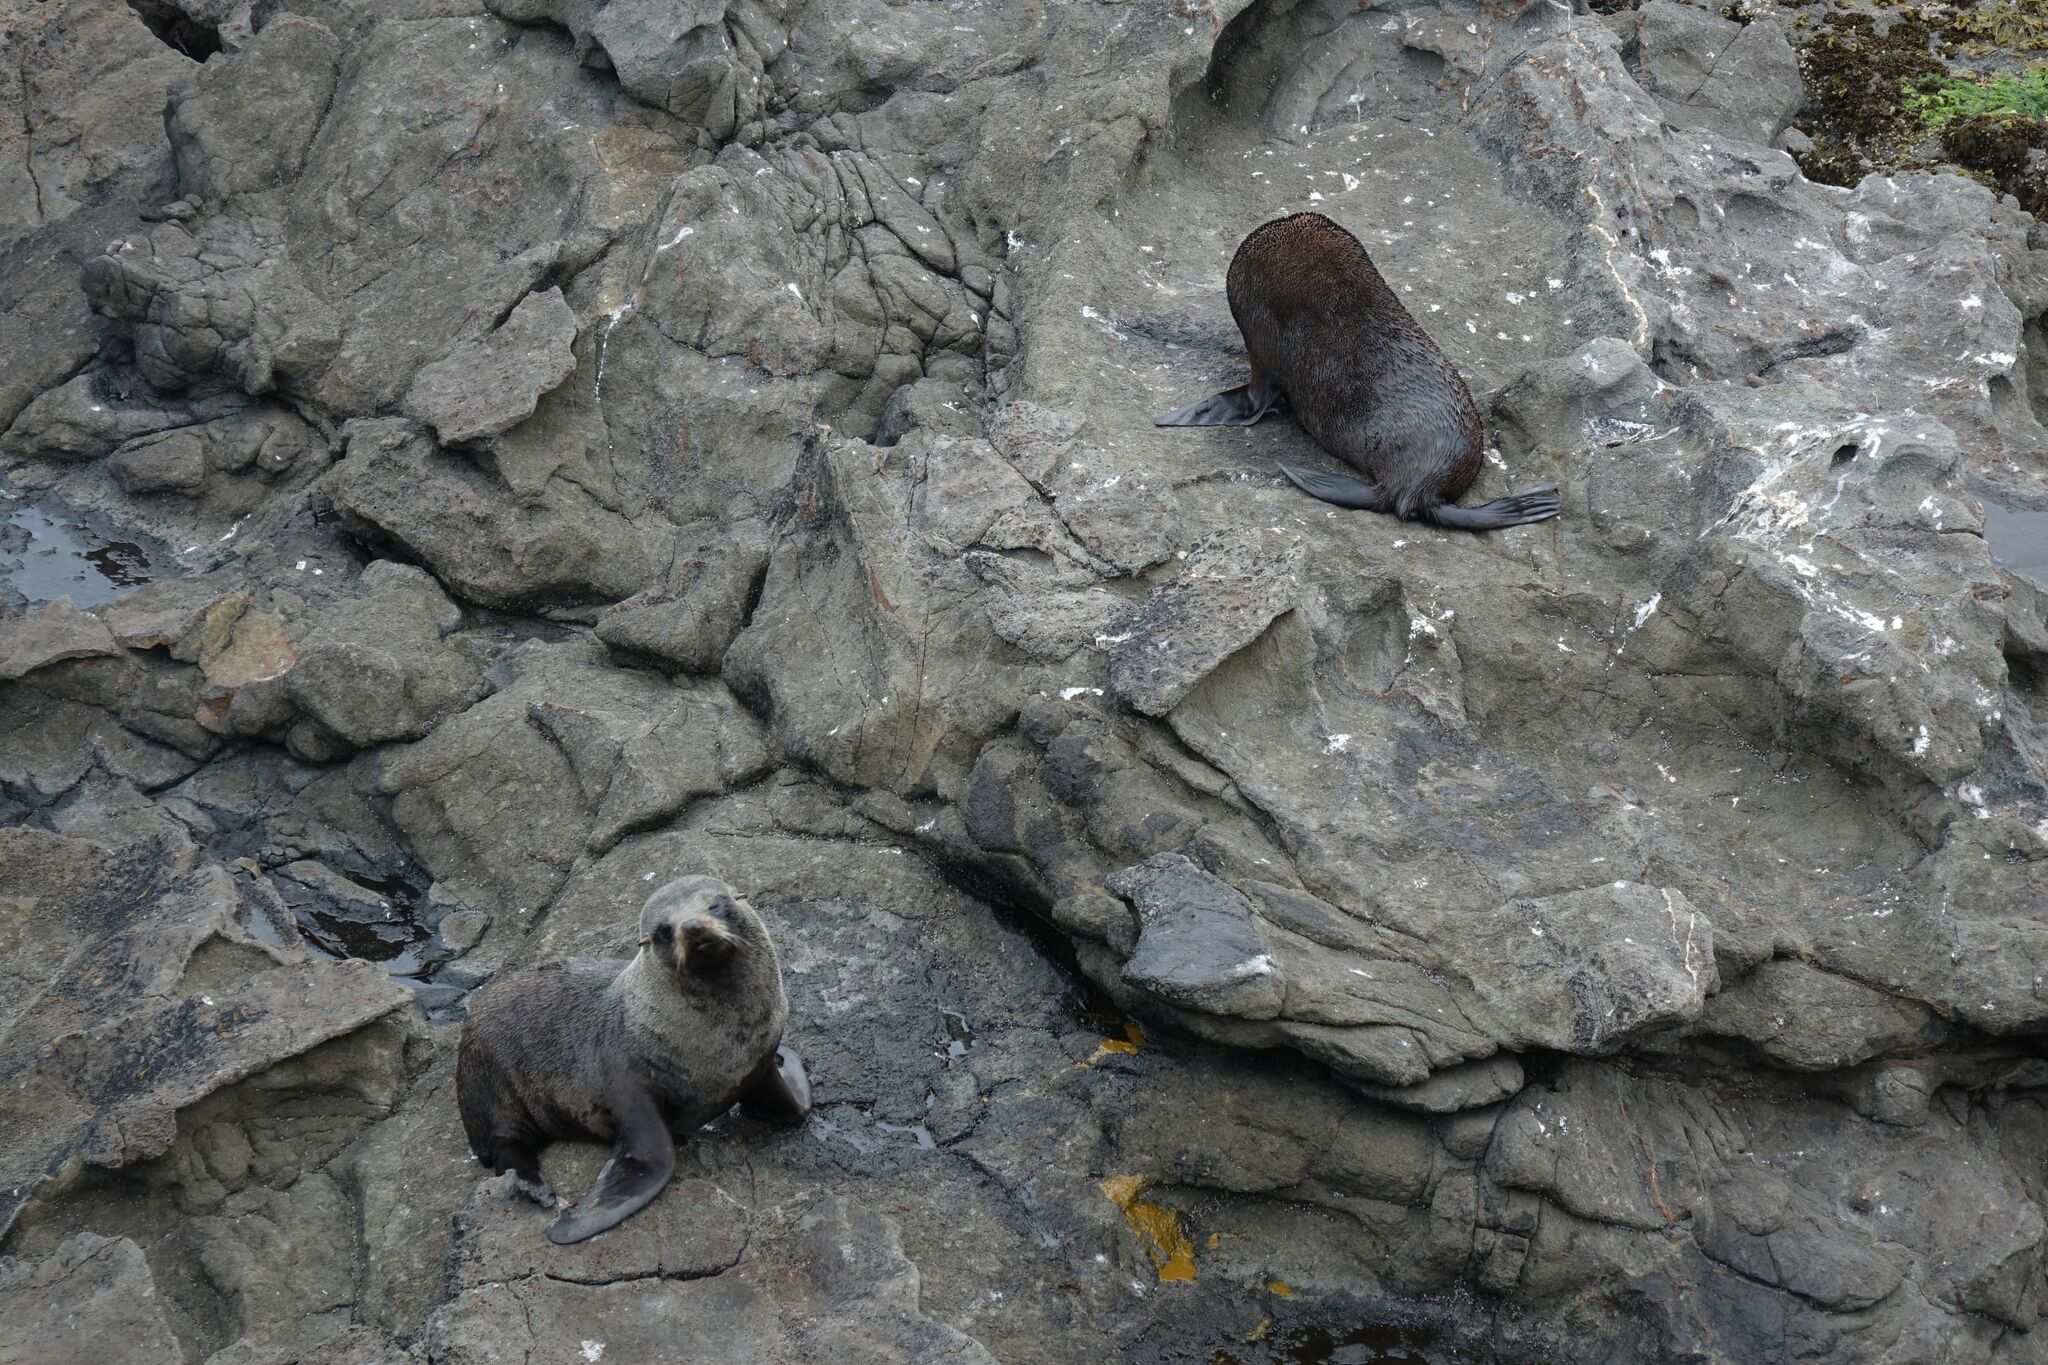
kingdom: Animalia
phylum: Chordata
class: Mammalia
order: Carnivora
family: Otariidae
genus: Arctocephalus
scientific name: Arctocephalus forsteri
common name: New zealand fur seal
